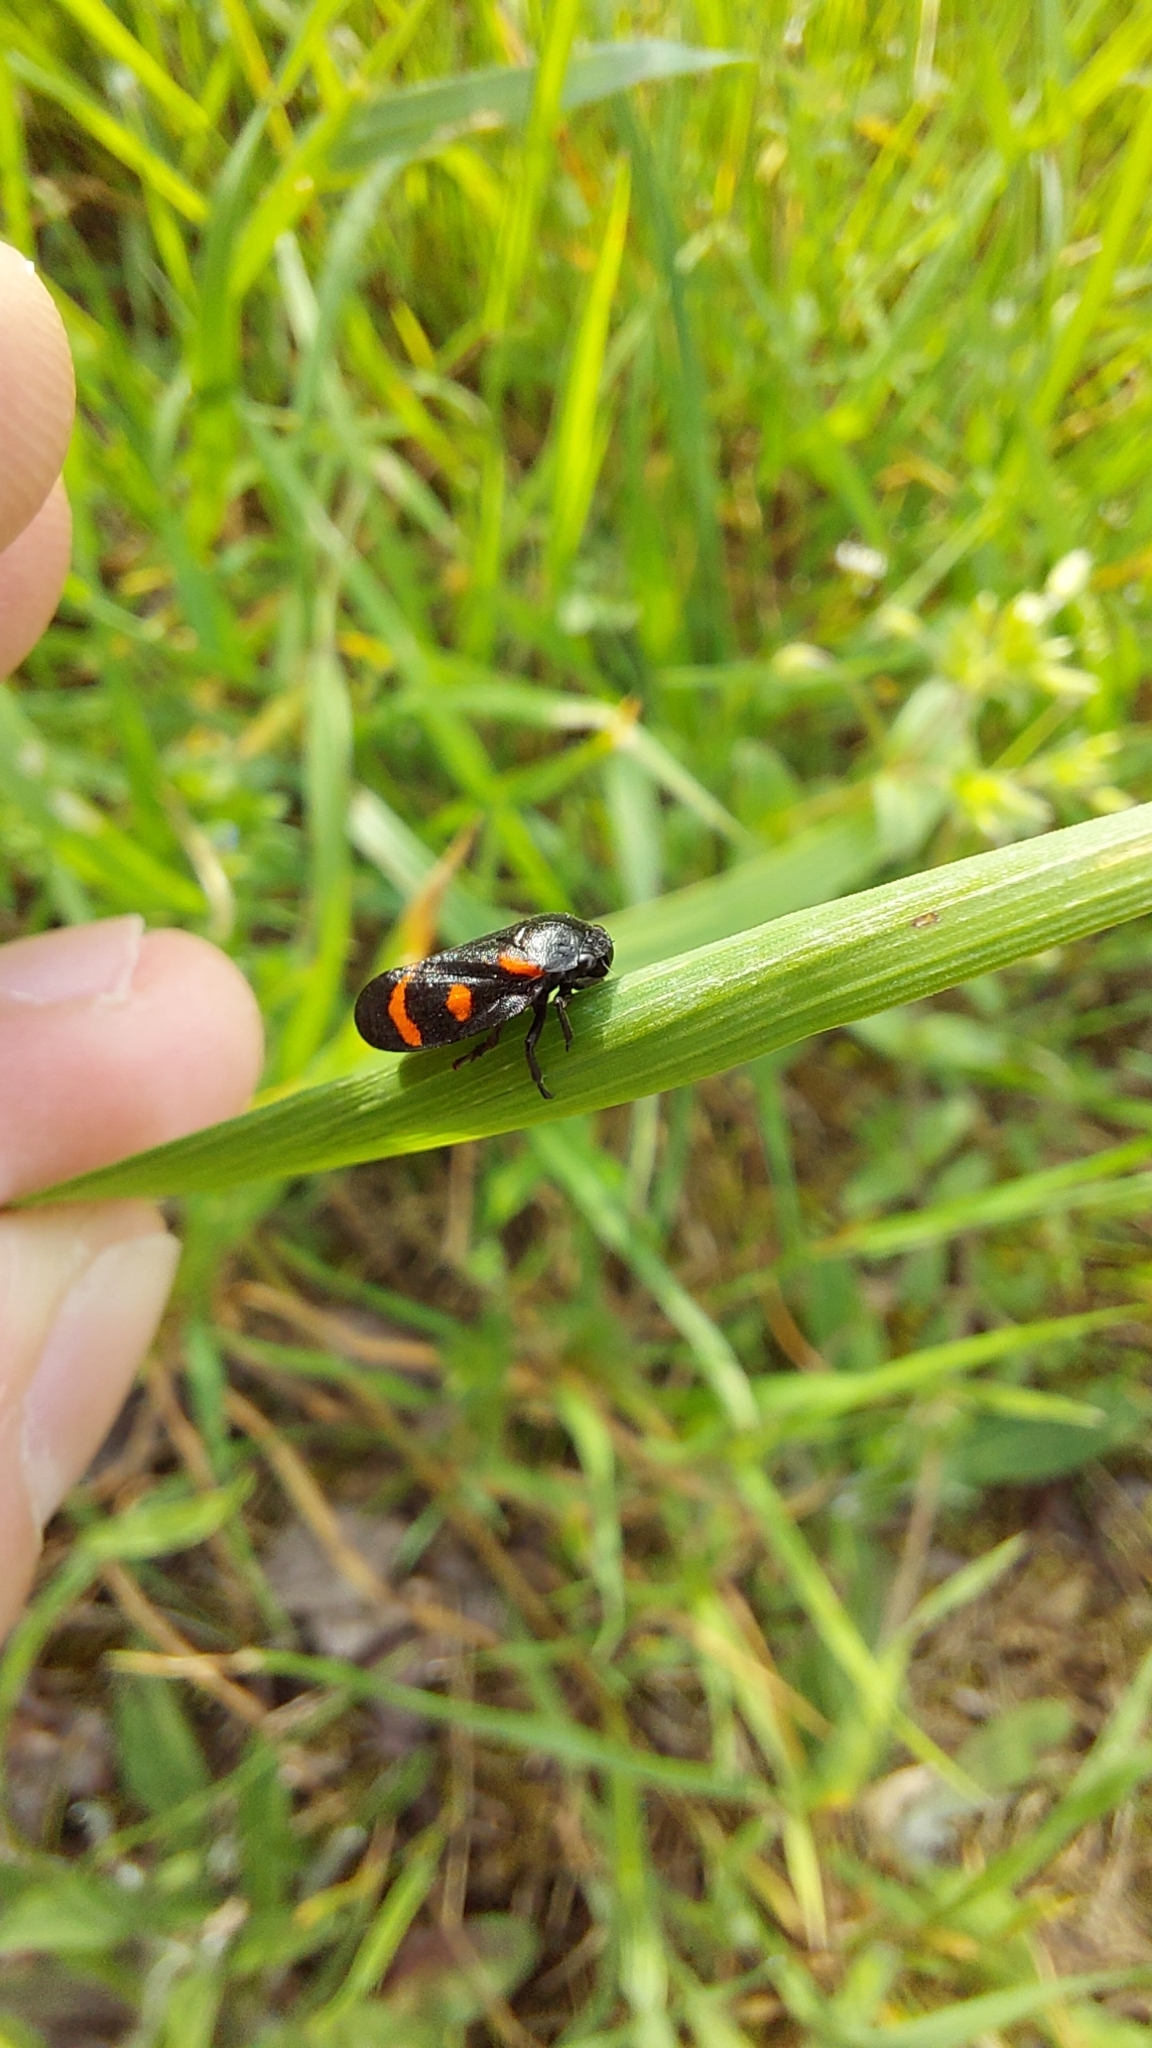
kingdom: Animalia
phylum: Arthropoda
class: Insecta
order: Hemiptera
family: Cercopidae
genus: Cercopis
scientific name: Cercopis sanguinolenta
